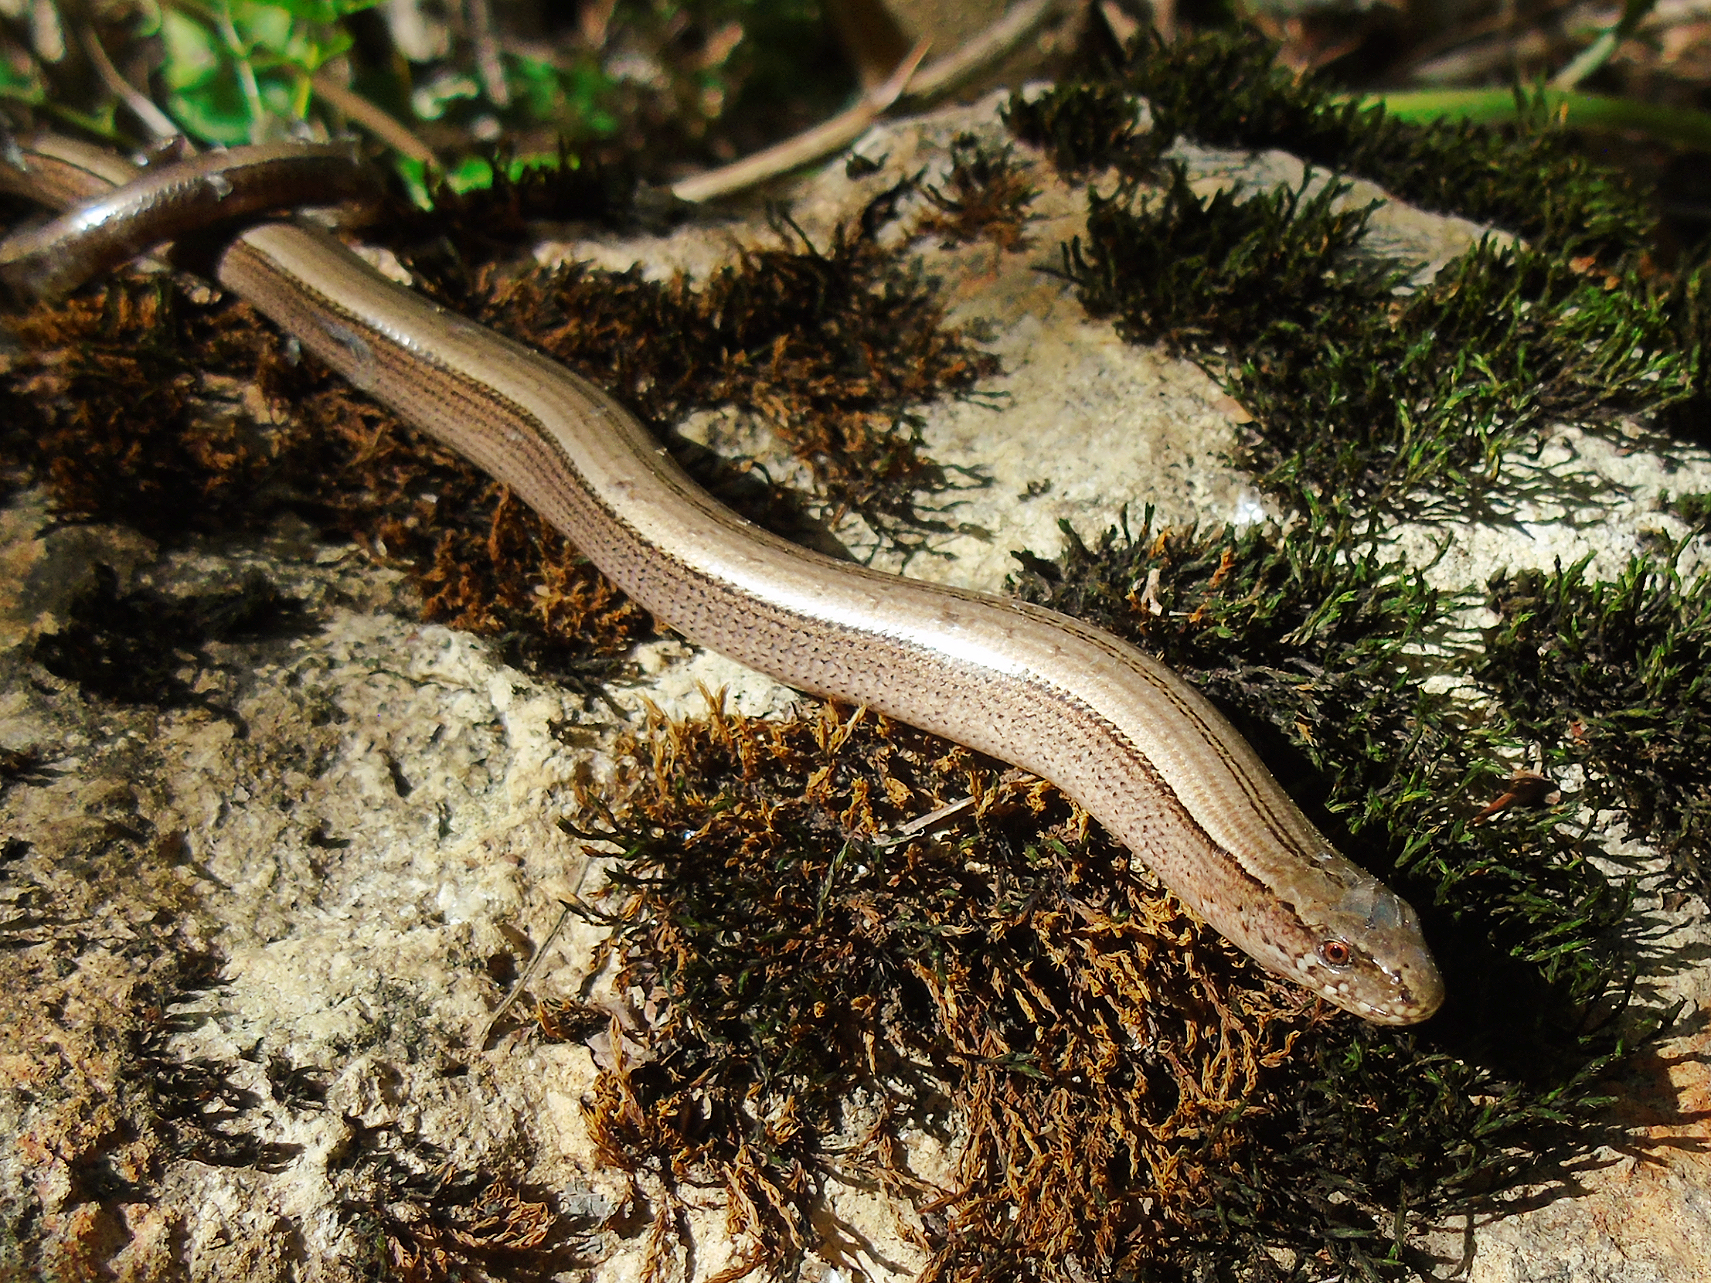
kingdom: Animalia
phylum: Chordata
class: Squamata
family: Anguidae
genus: Anguis
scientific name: Anguis colchica
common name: Slow worm
